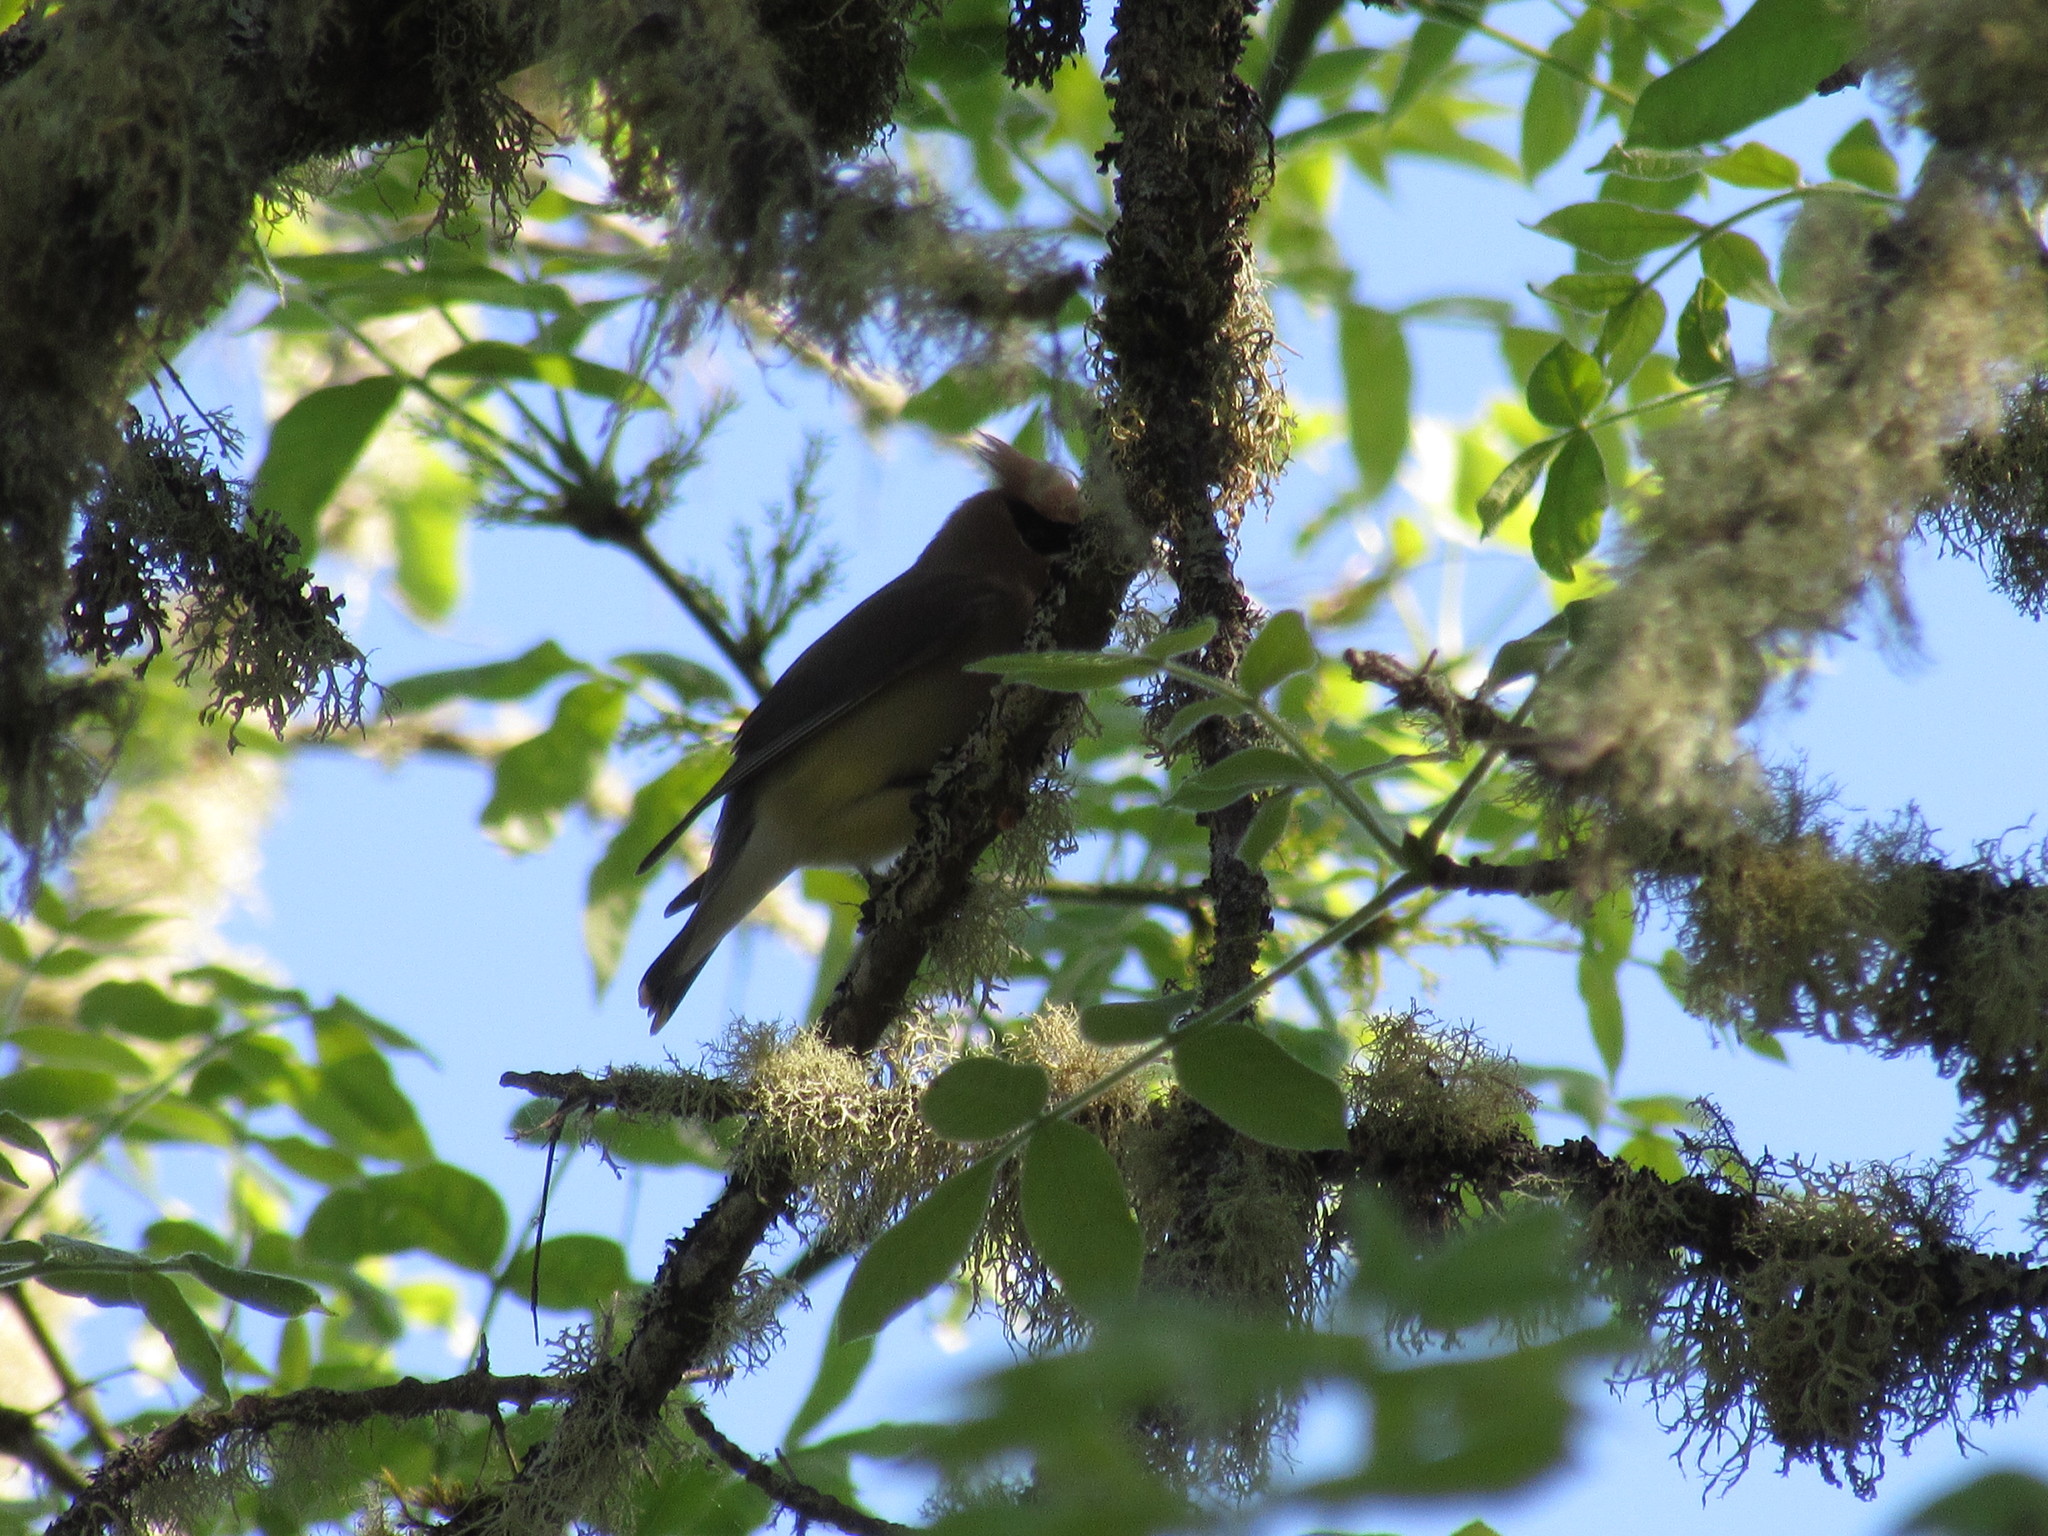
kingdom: Animalia
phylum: Chordata
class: Aves
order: Passeriformes
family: Bombycillidae
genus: Bombycilla
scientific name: Bombycilla cedrorum
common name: Cedar waxwing
